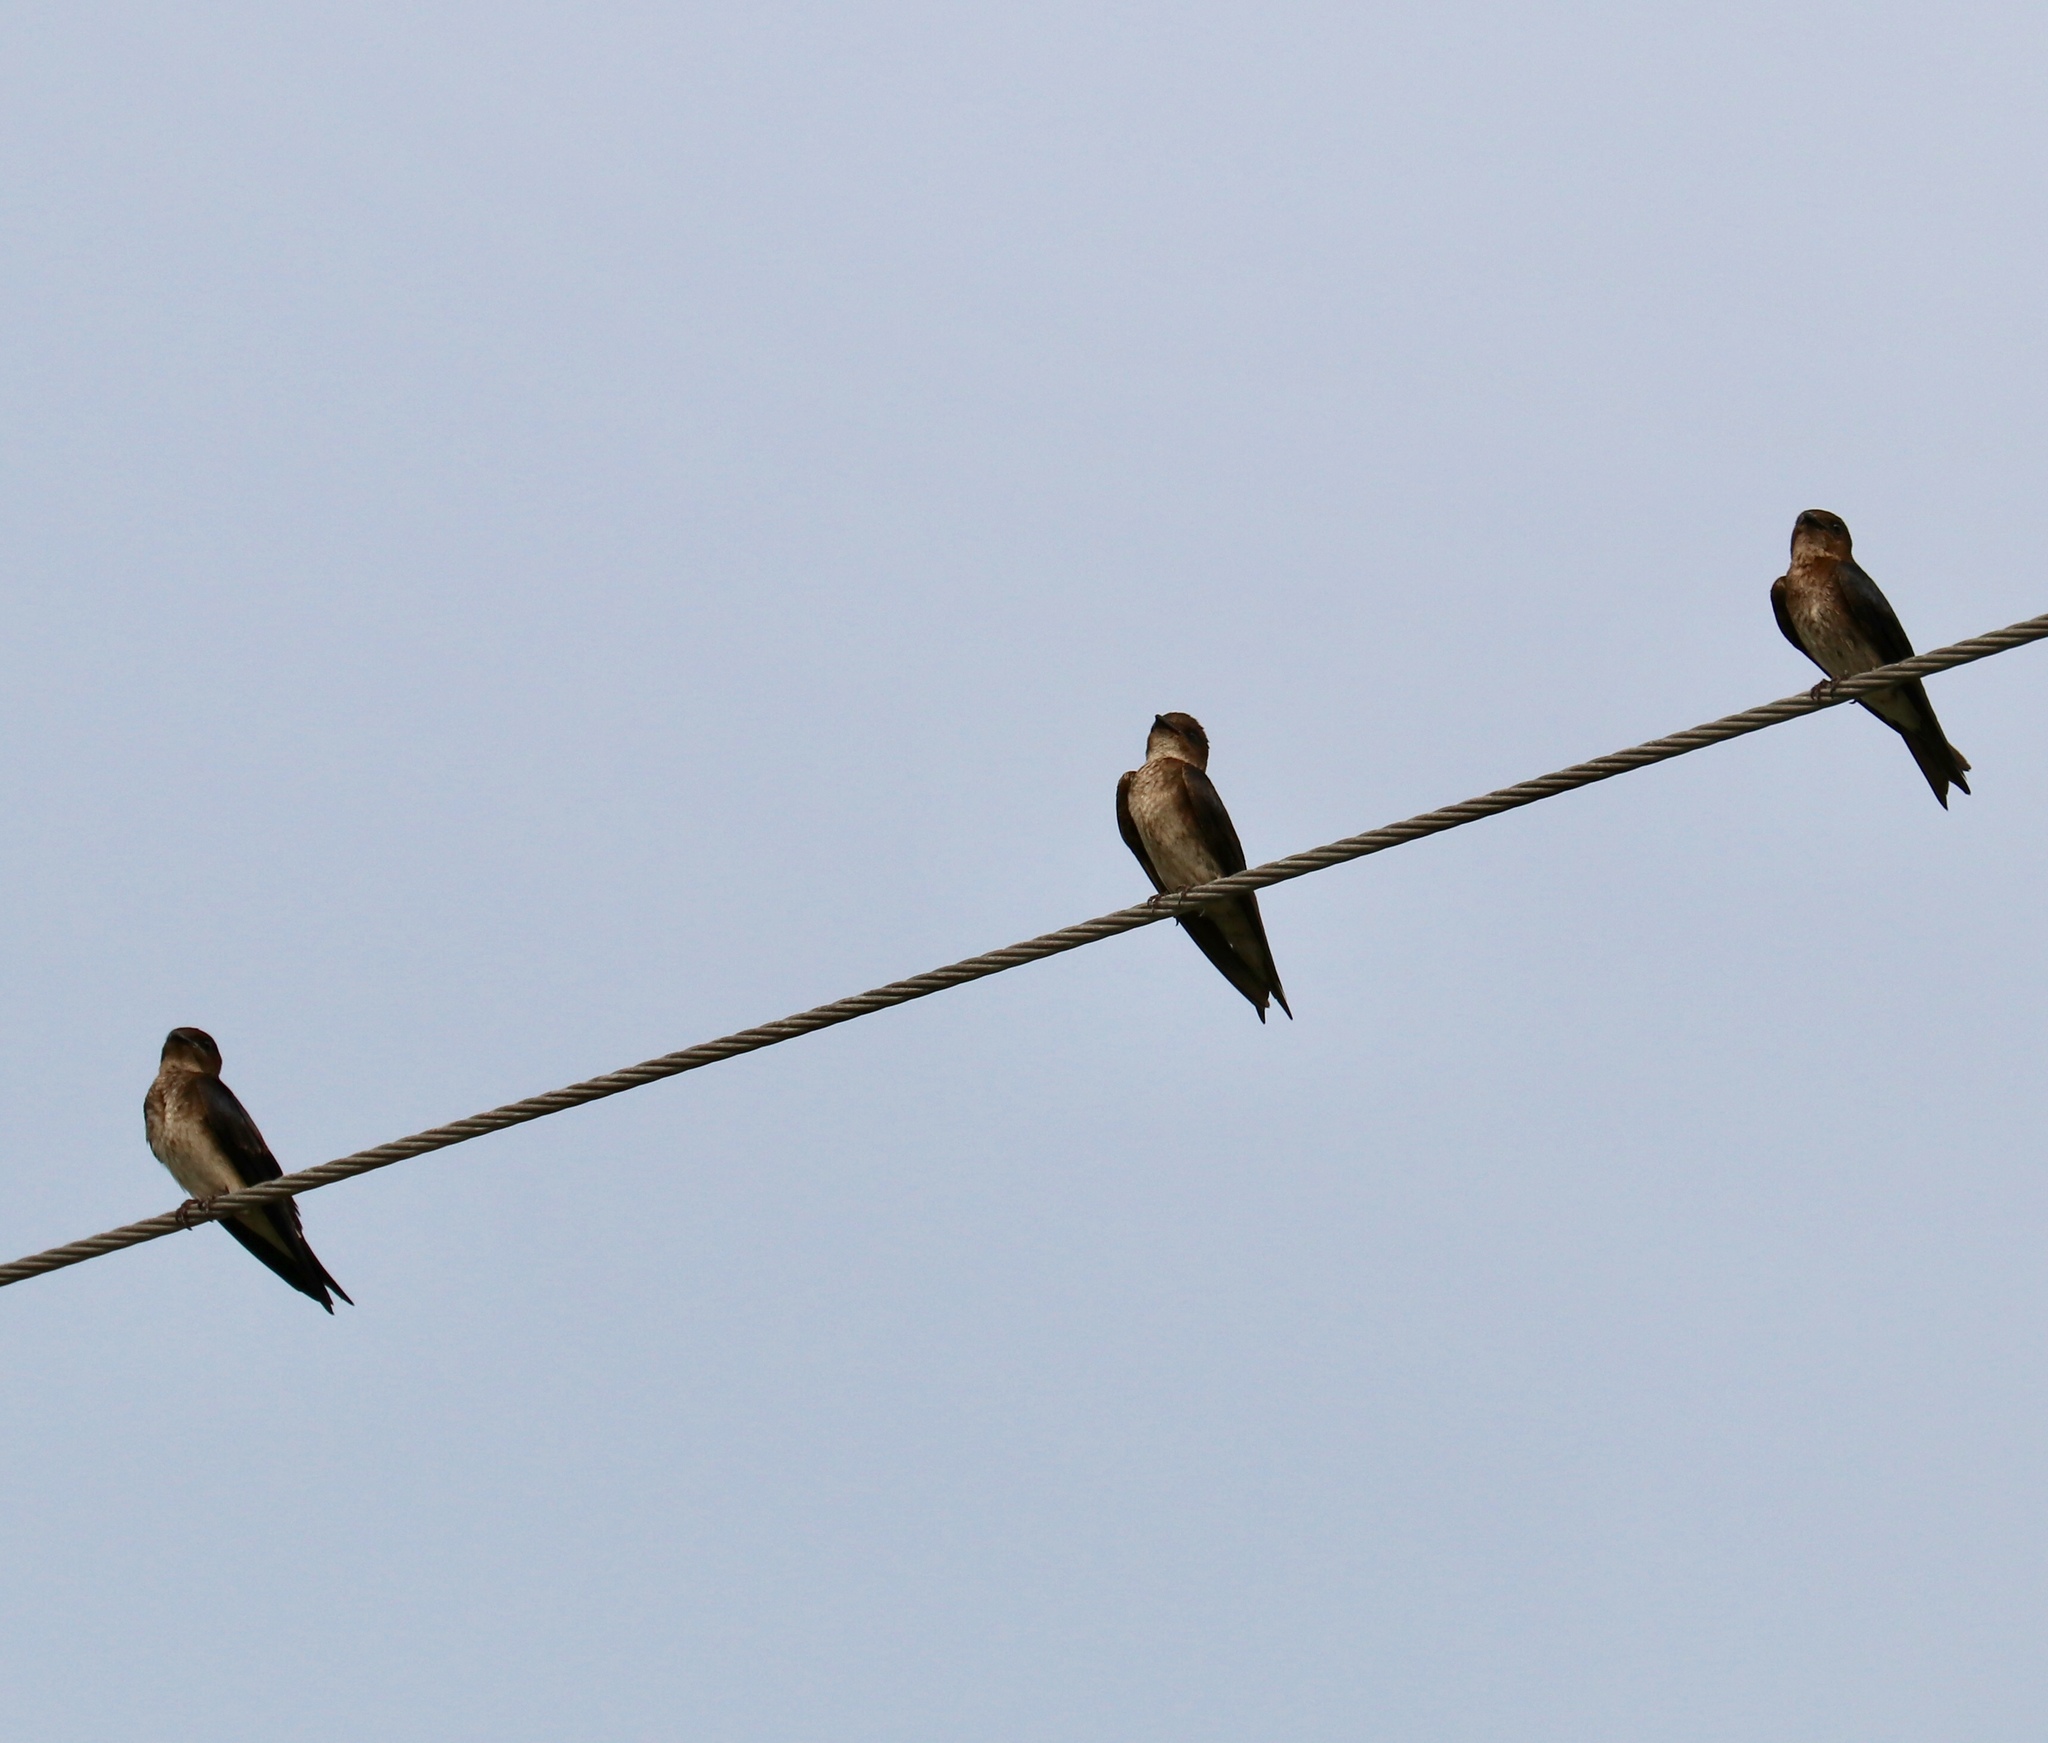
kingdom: Animalia
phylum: Chordata
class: Aves
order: Passeriformes
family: Hirundinidae
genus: Progne
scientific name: Progne chalybea
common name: Grey-breasted martin
